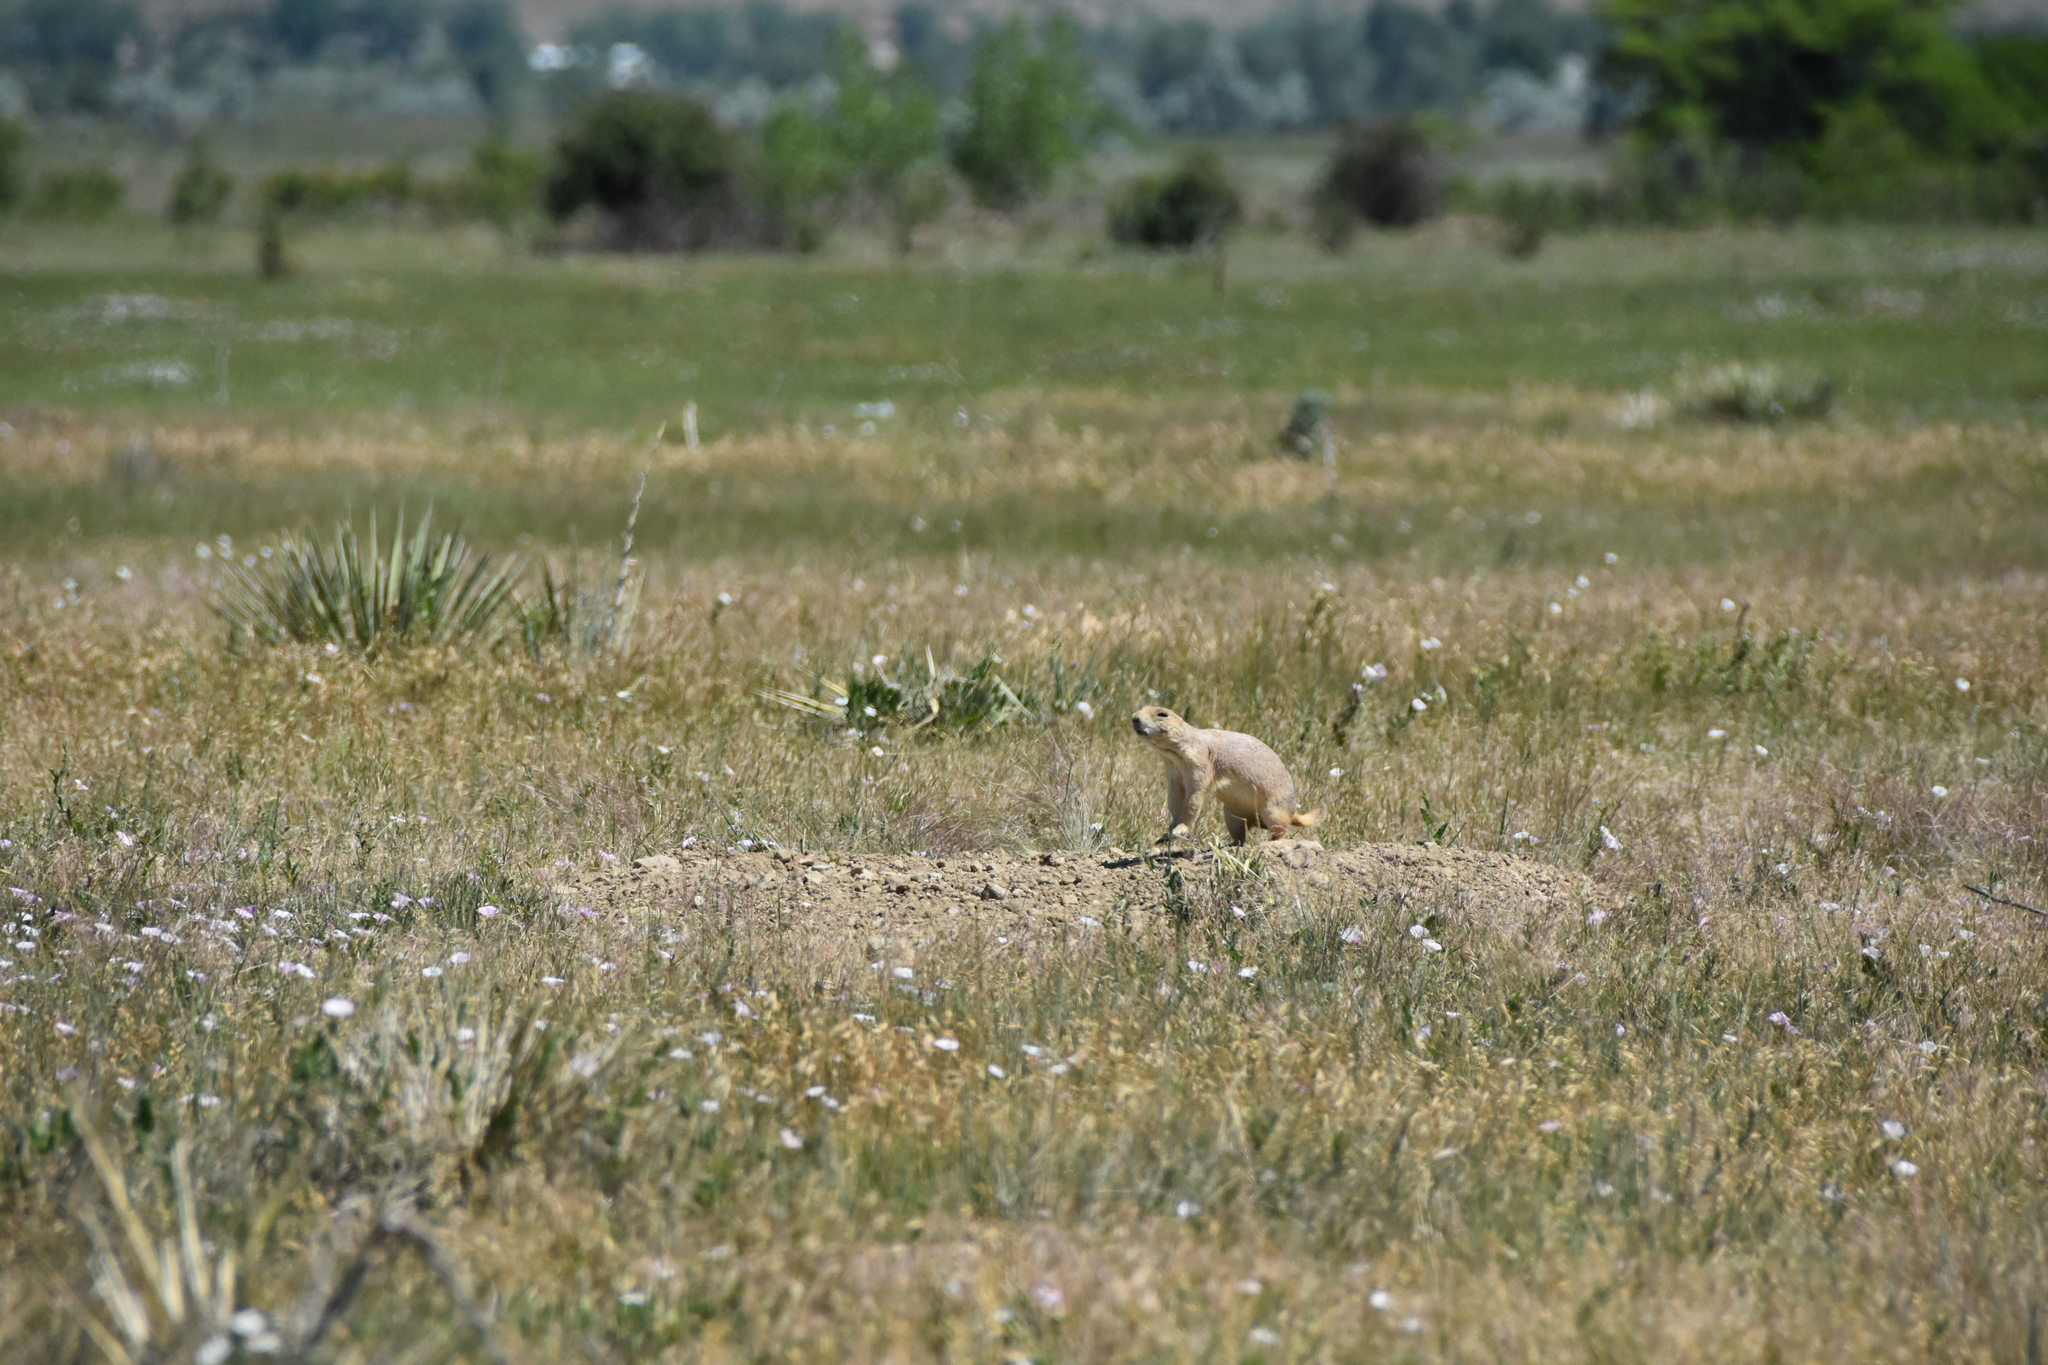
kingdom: Animalia
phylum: Chordata
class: Mammalia
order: Rodentia
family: Sciuridae
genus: Cynomys
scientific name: Cynomys ludovicianus
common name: Black-tailed prairie dog
